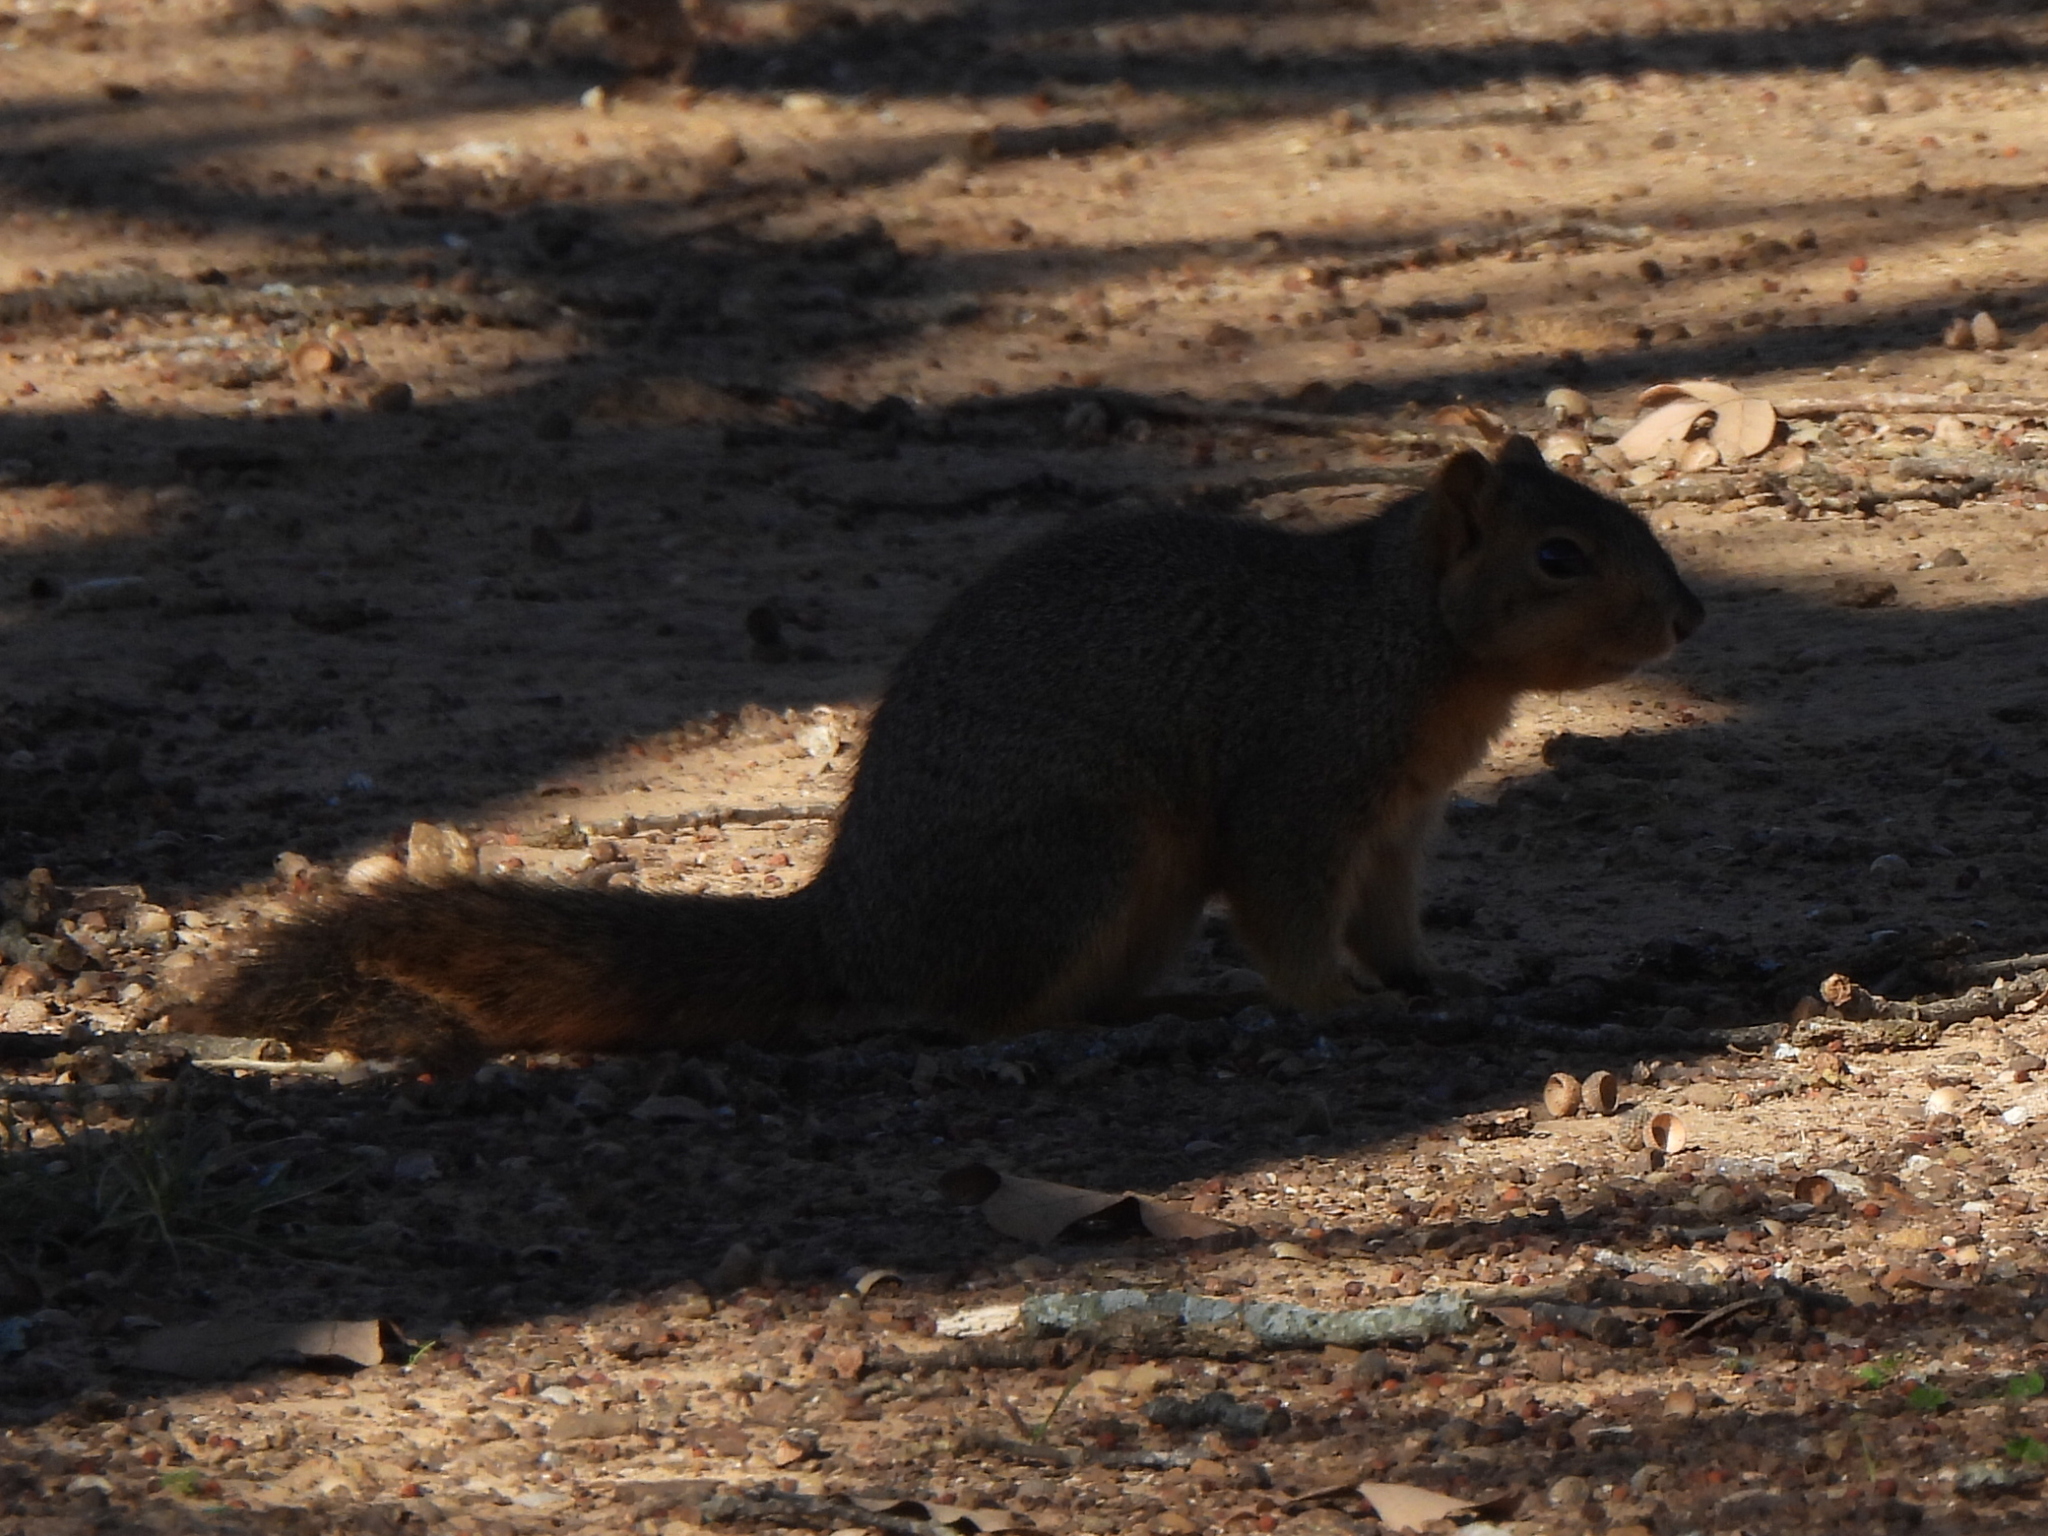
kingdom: Animalia
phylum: Chordata
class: Mammalia
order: Rodentia
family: Sciuridae
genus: Sciurus
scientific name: Sciurus niger
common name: Fox squirrel
